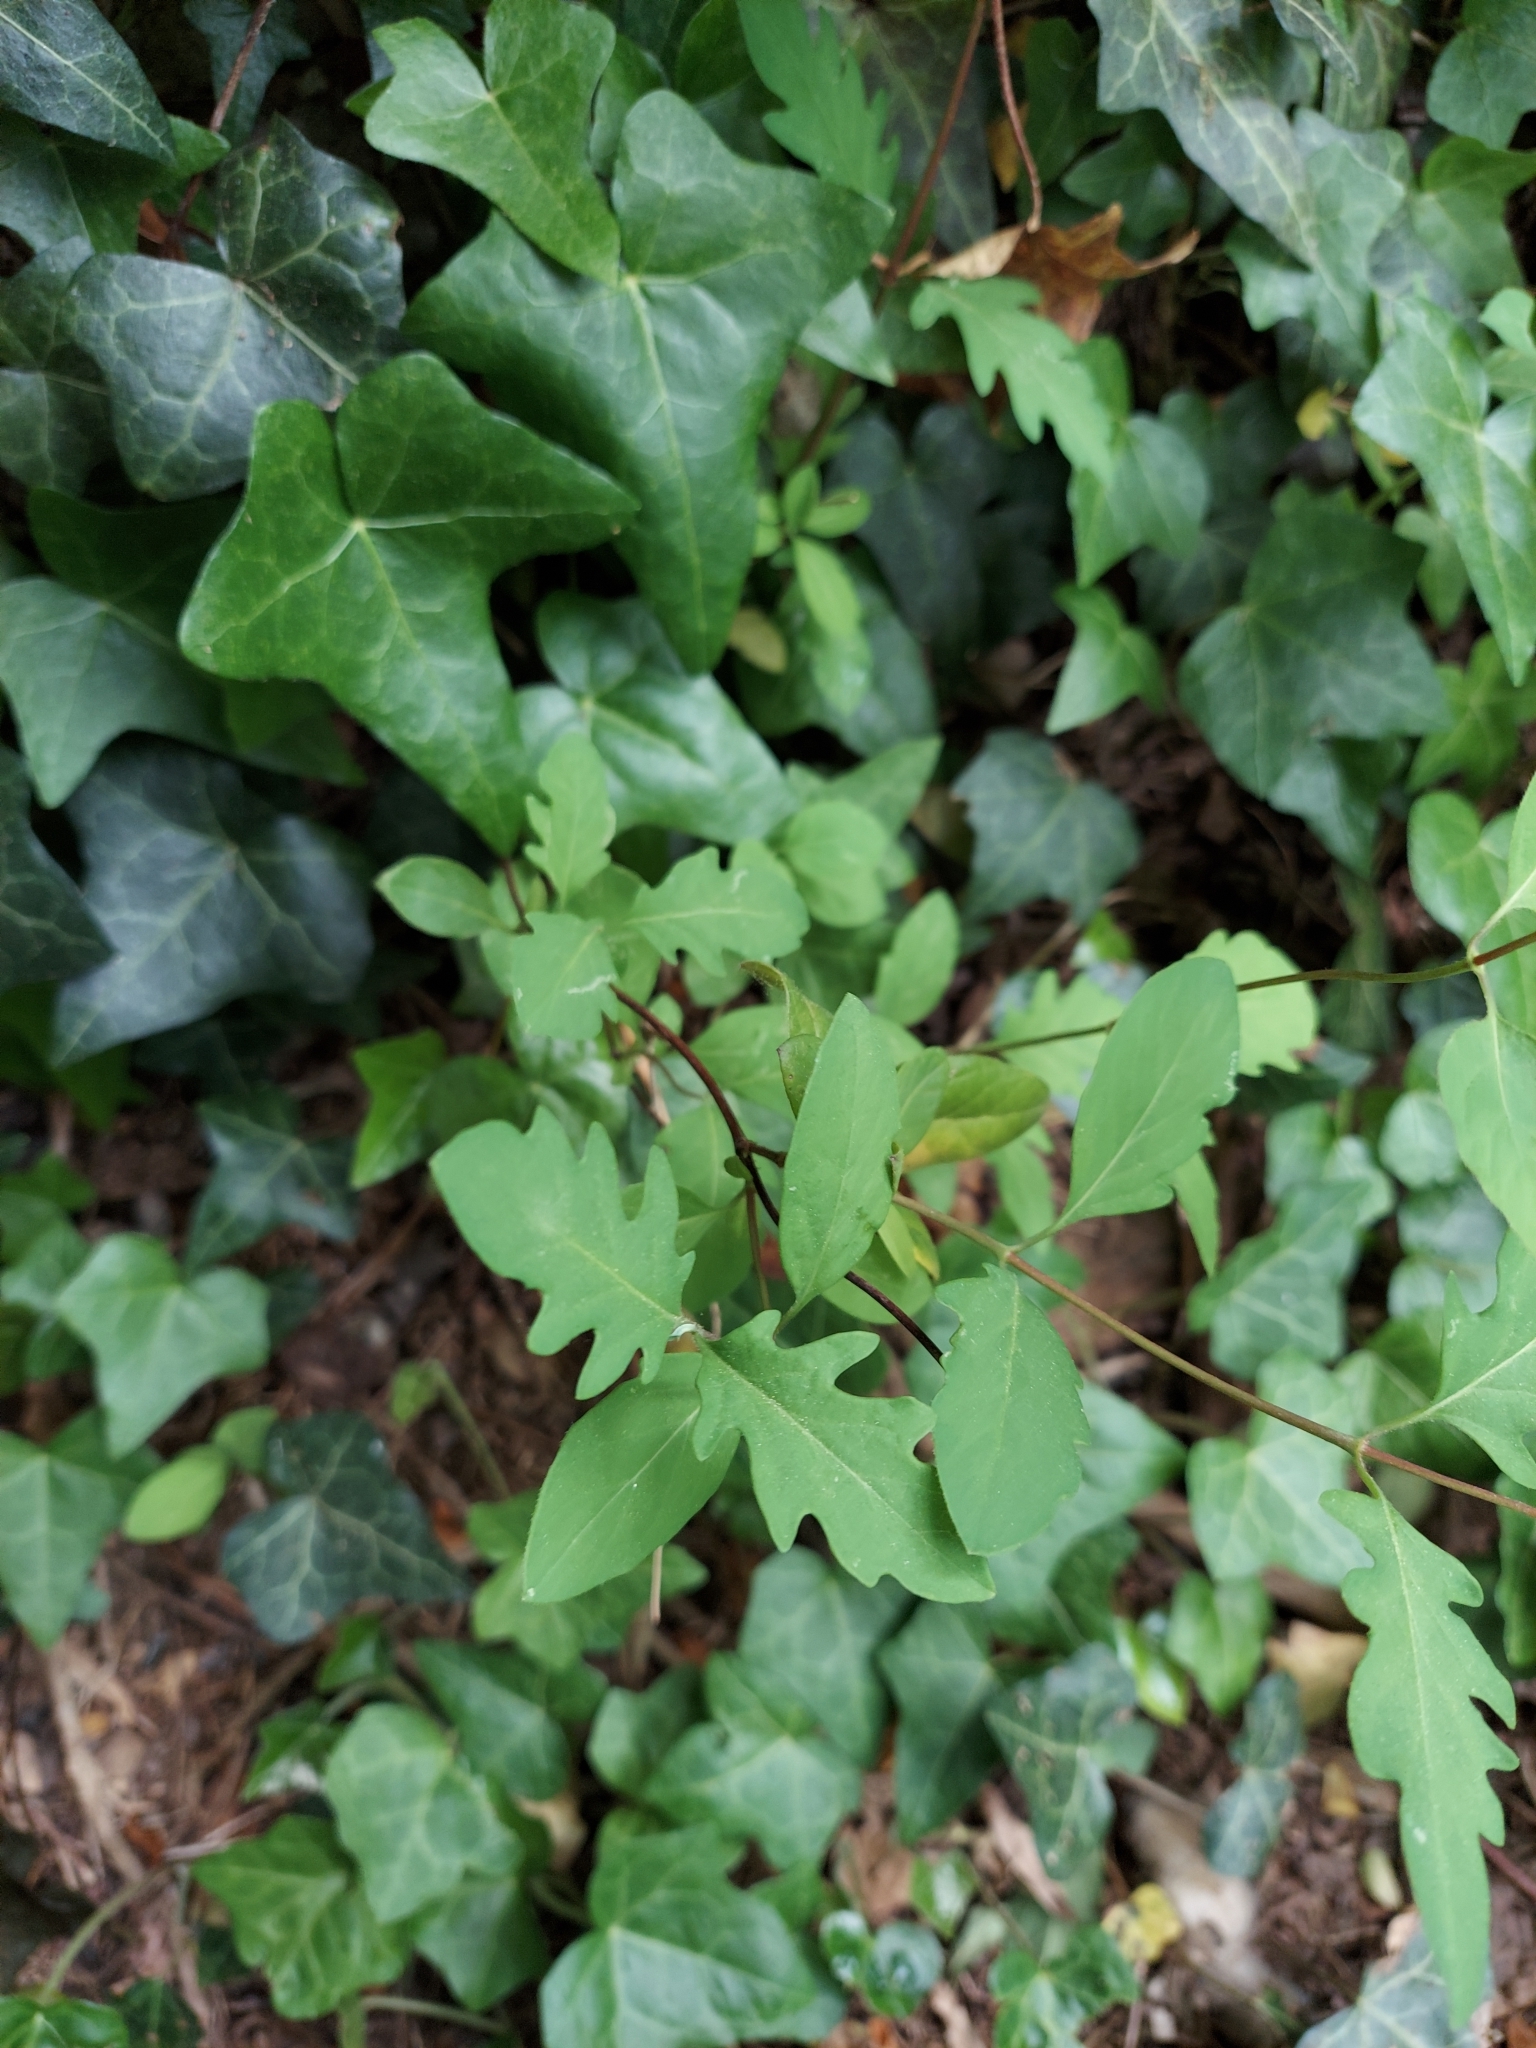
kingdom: Plantae
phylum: Tracheophyta
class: Magnoliopsida
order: Dipsacales
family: Caprifoliaceae
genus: Lonicera
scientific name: Lonicera japonica
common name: Japanese honeysuckle
